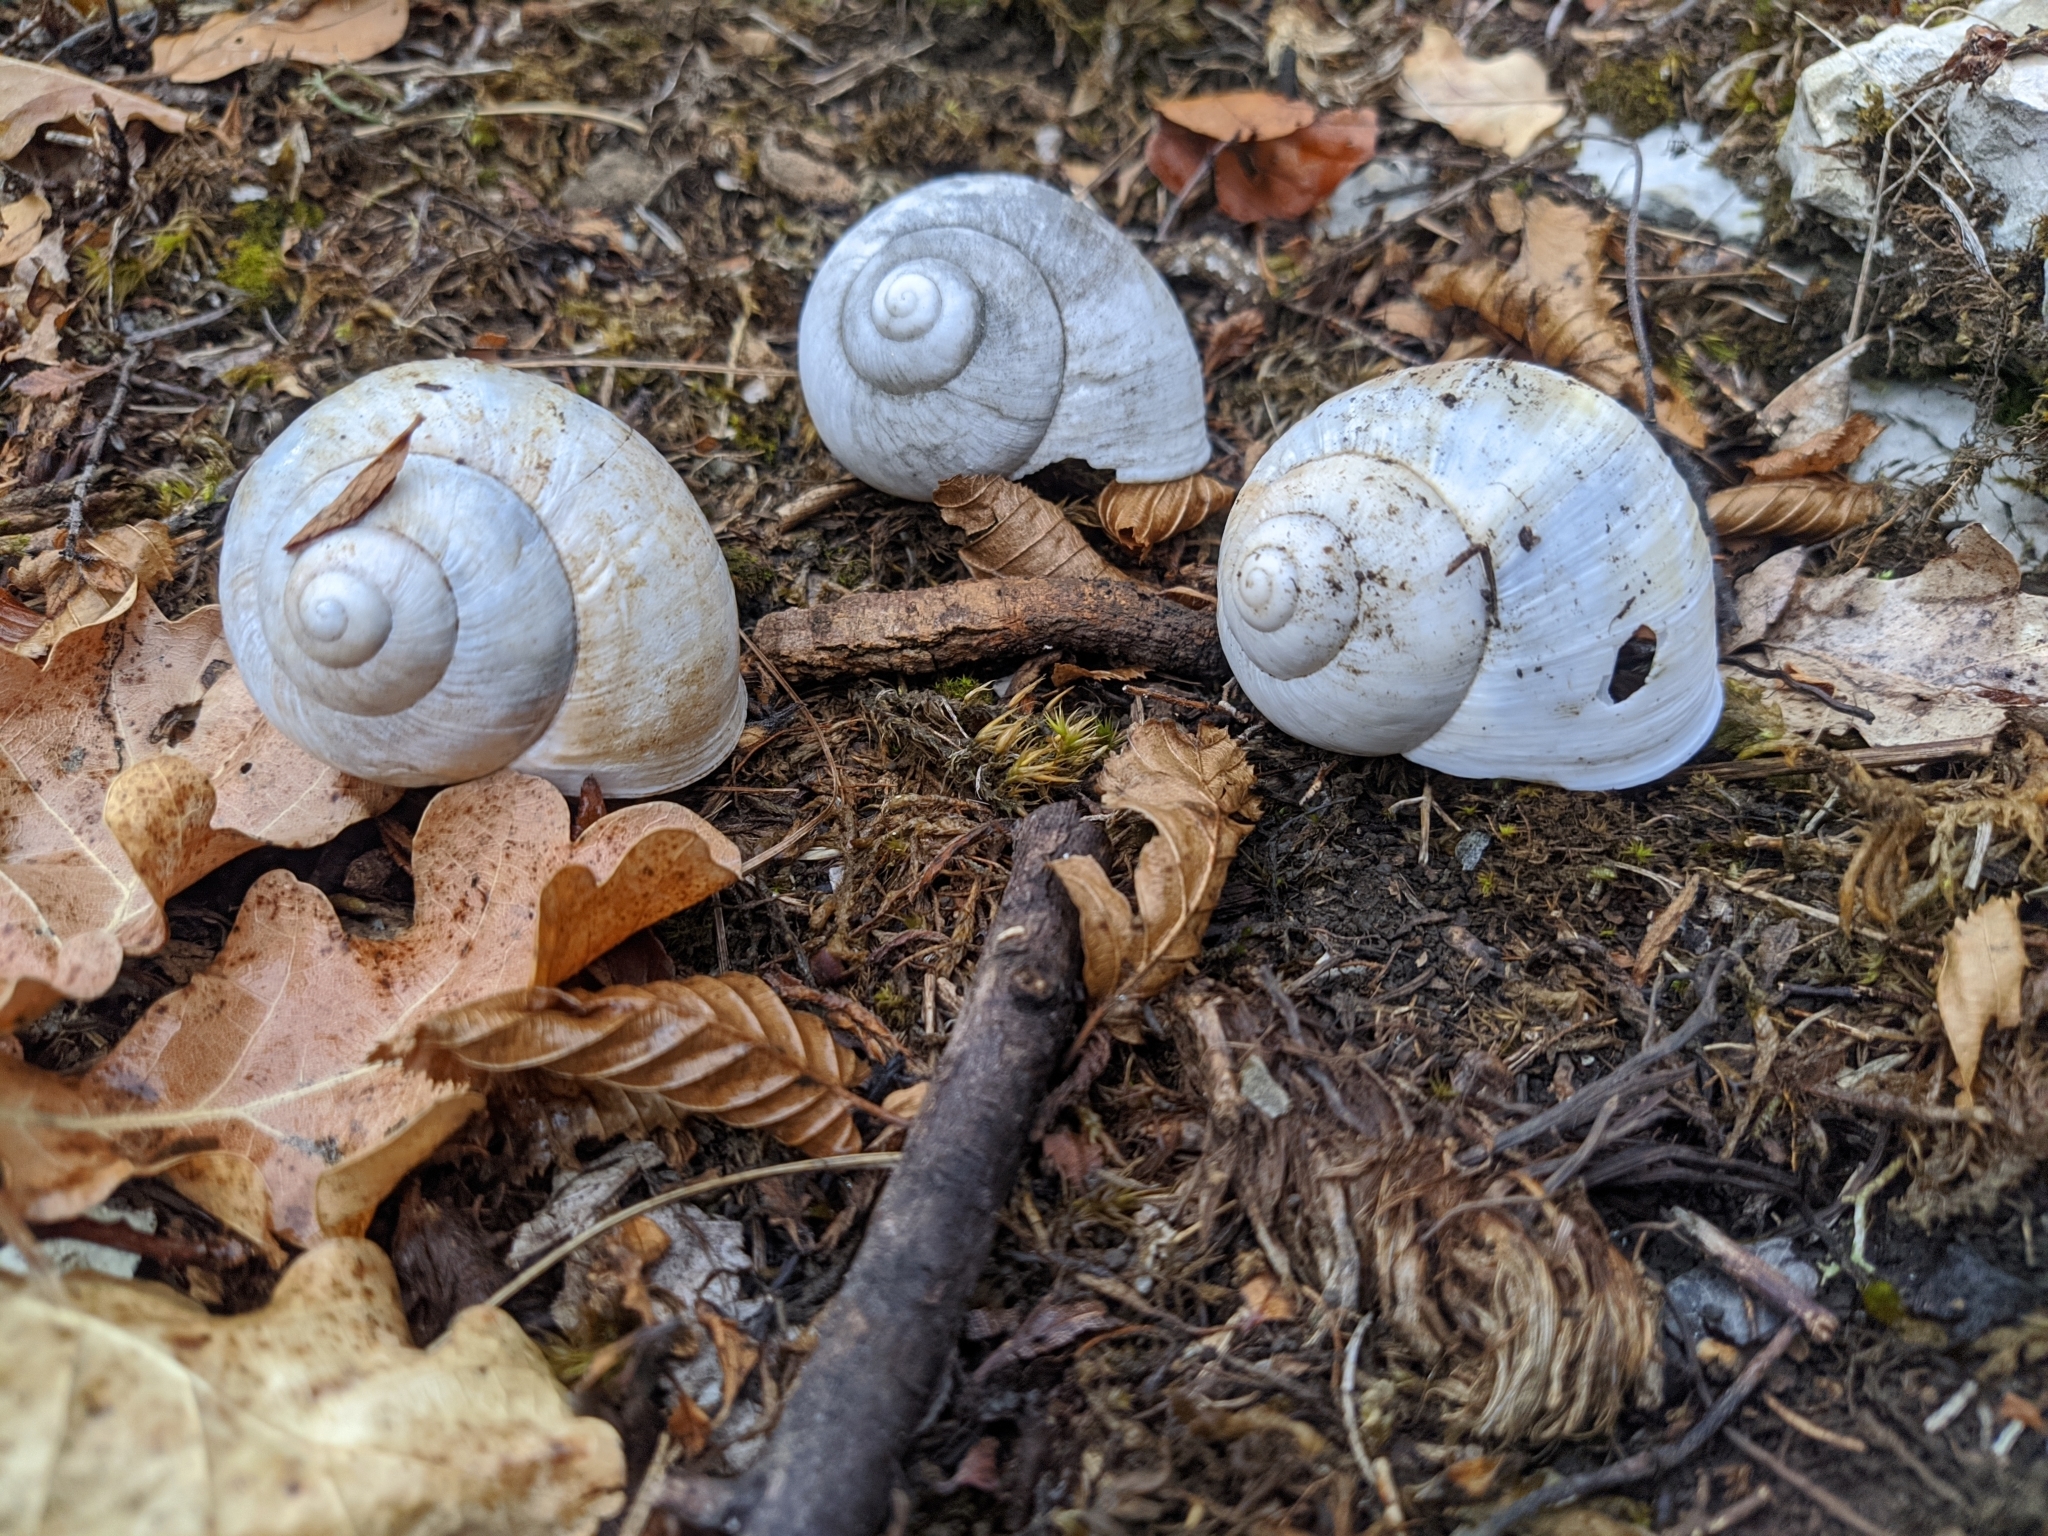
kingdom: Animalia
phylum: Mollusca
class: Gastropoda
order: Stylommatophora
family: Helicidae
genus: Helix
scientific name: Helix pomatia
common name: Roman snail
